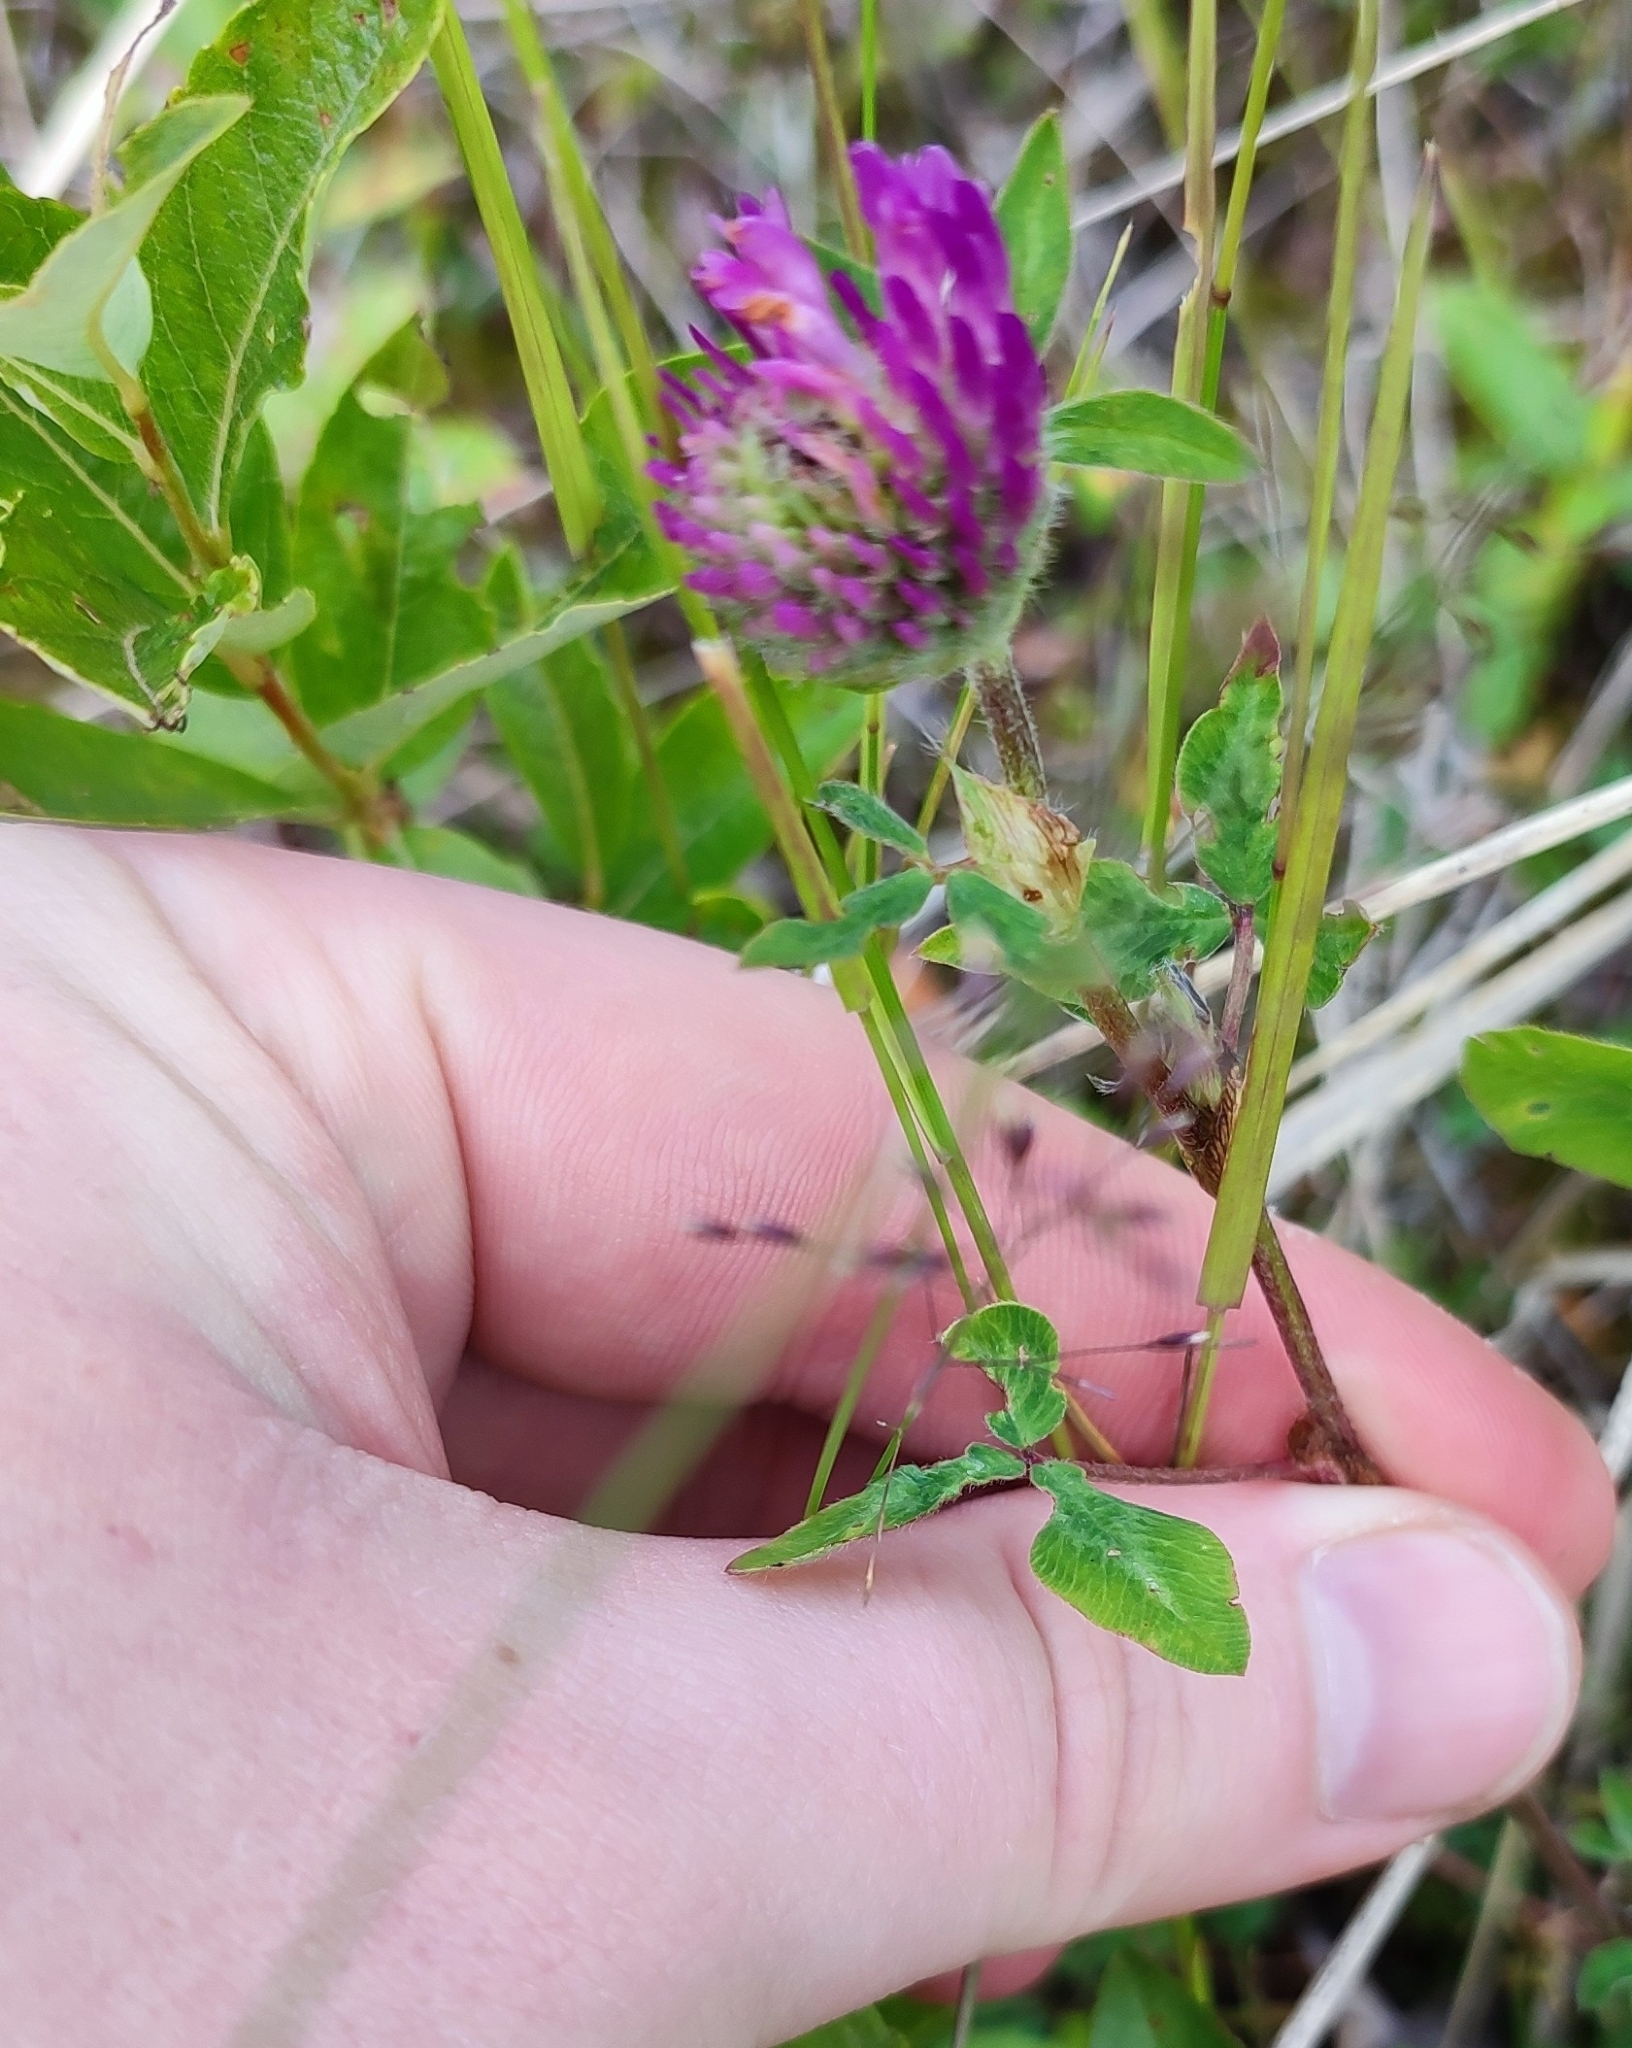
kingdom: Plantae
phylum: Tracheophyta
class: Magnoliopsida
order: Fabales
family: Fabaceae
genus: Trifolium
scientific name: Trifolium pratense
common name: Red clover
